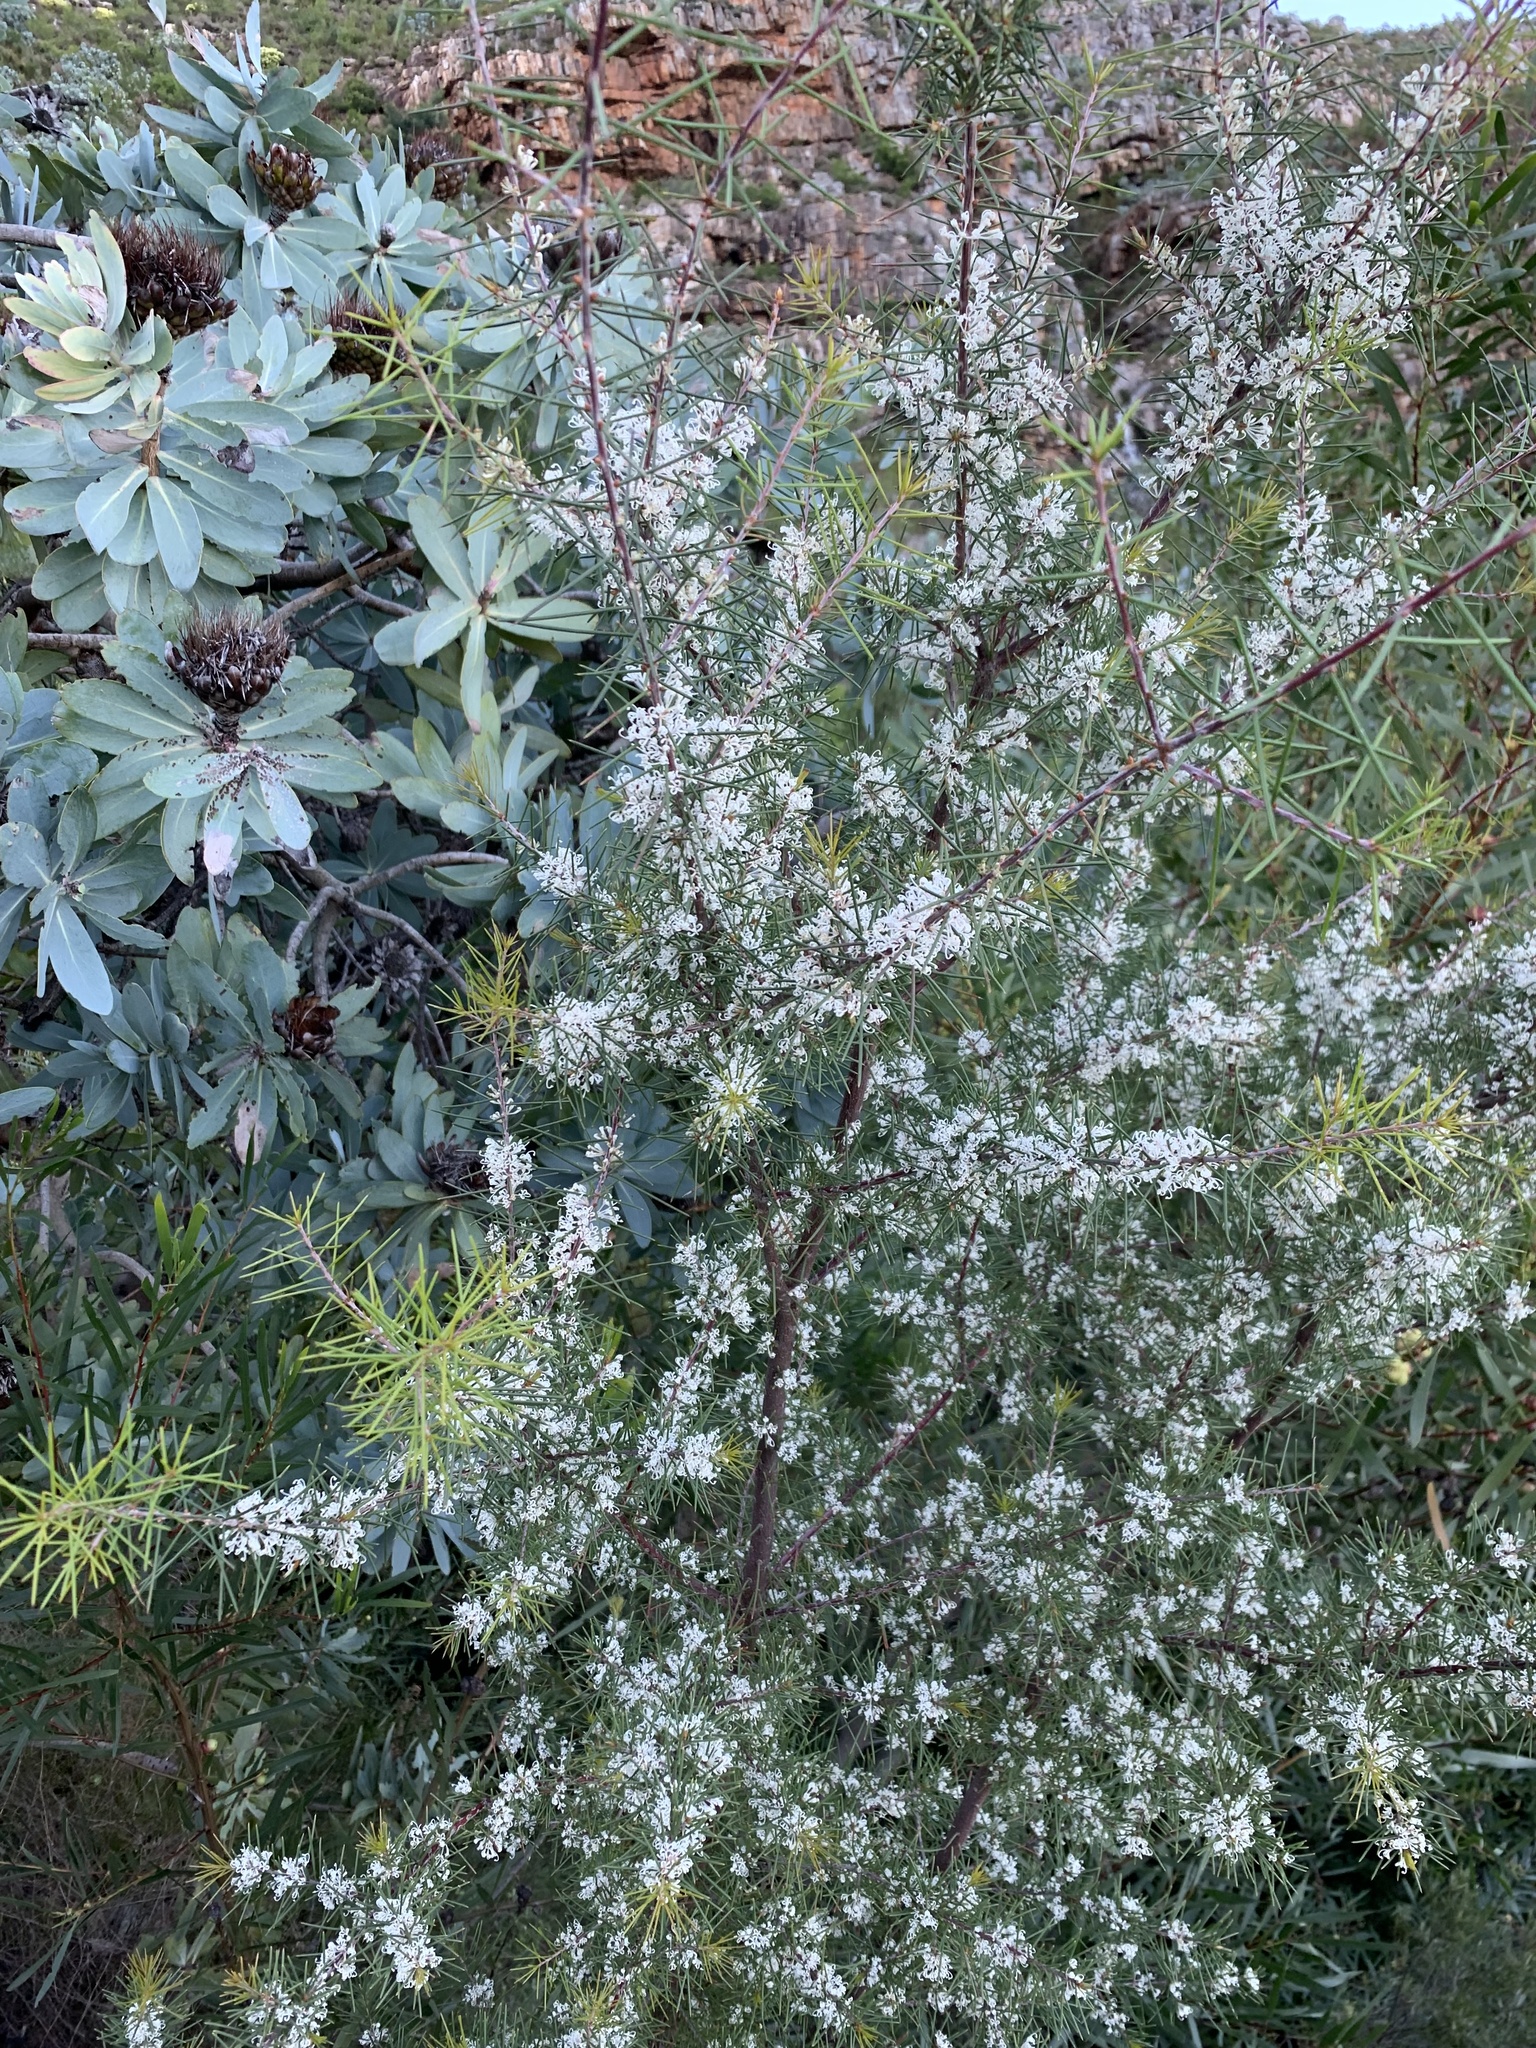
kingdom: Plantae
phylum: Tracheophyta
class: Magnoliopsida
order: Proteales
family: Proteaceae
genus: Hakea
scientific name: Hakea sericea
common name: Needle bush
